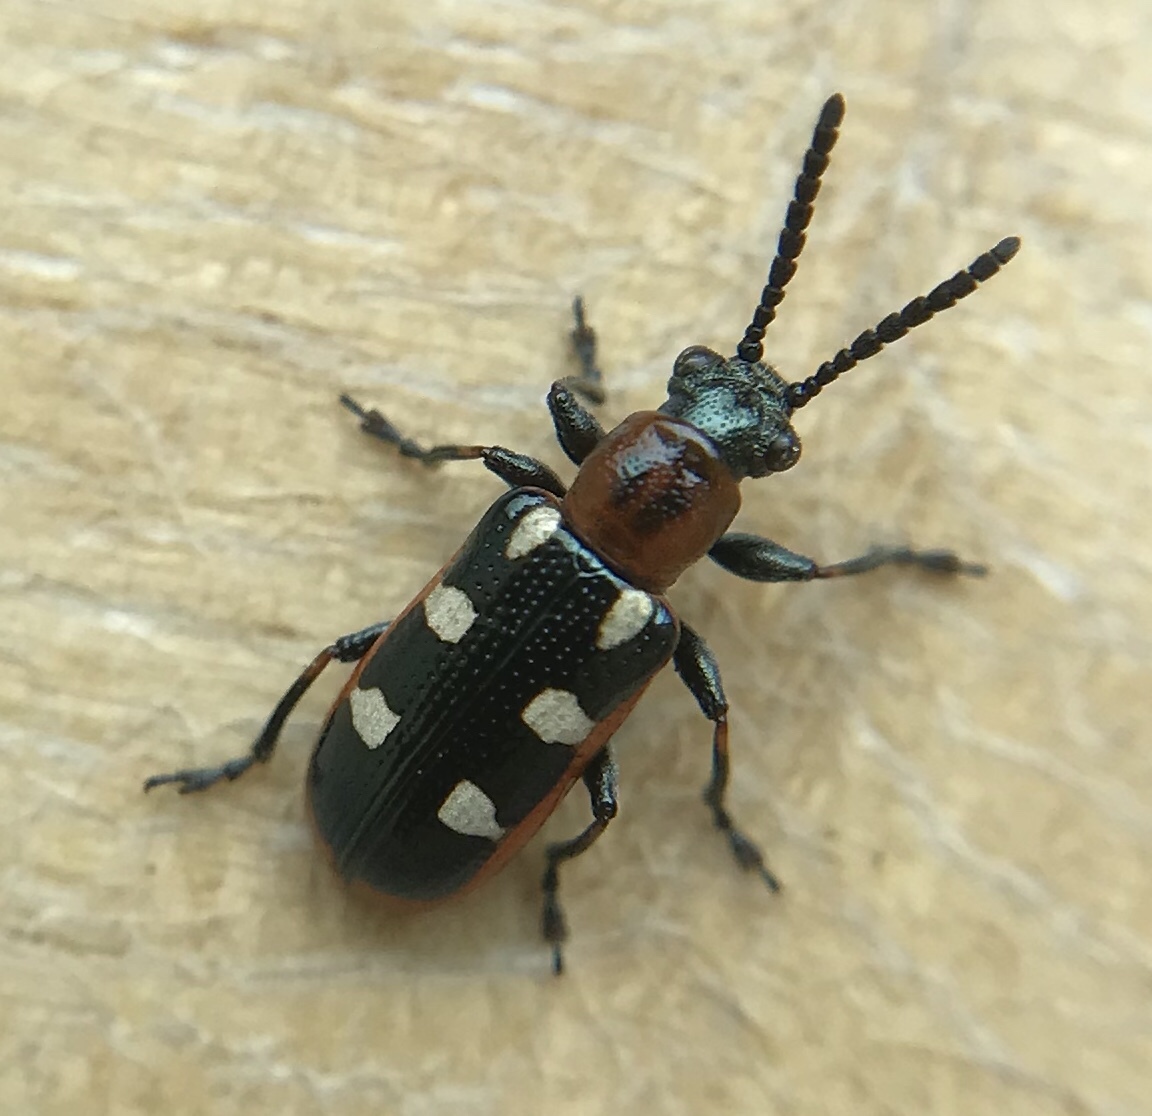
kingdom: Animalia
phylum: Arthropoda
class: Insecta
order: Coleoptera
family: Chrysomelidae
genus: Crioceris
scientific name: Crioceris asparagi
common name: Asparagus beetle
